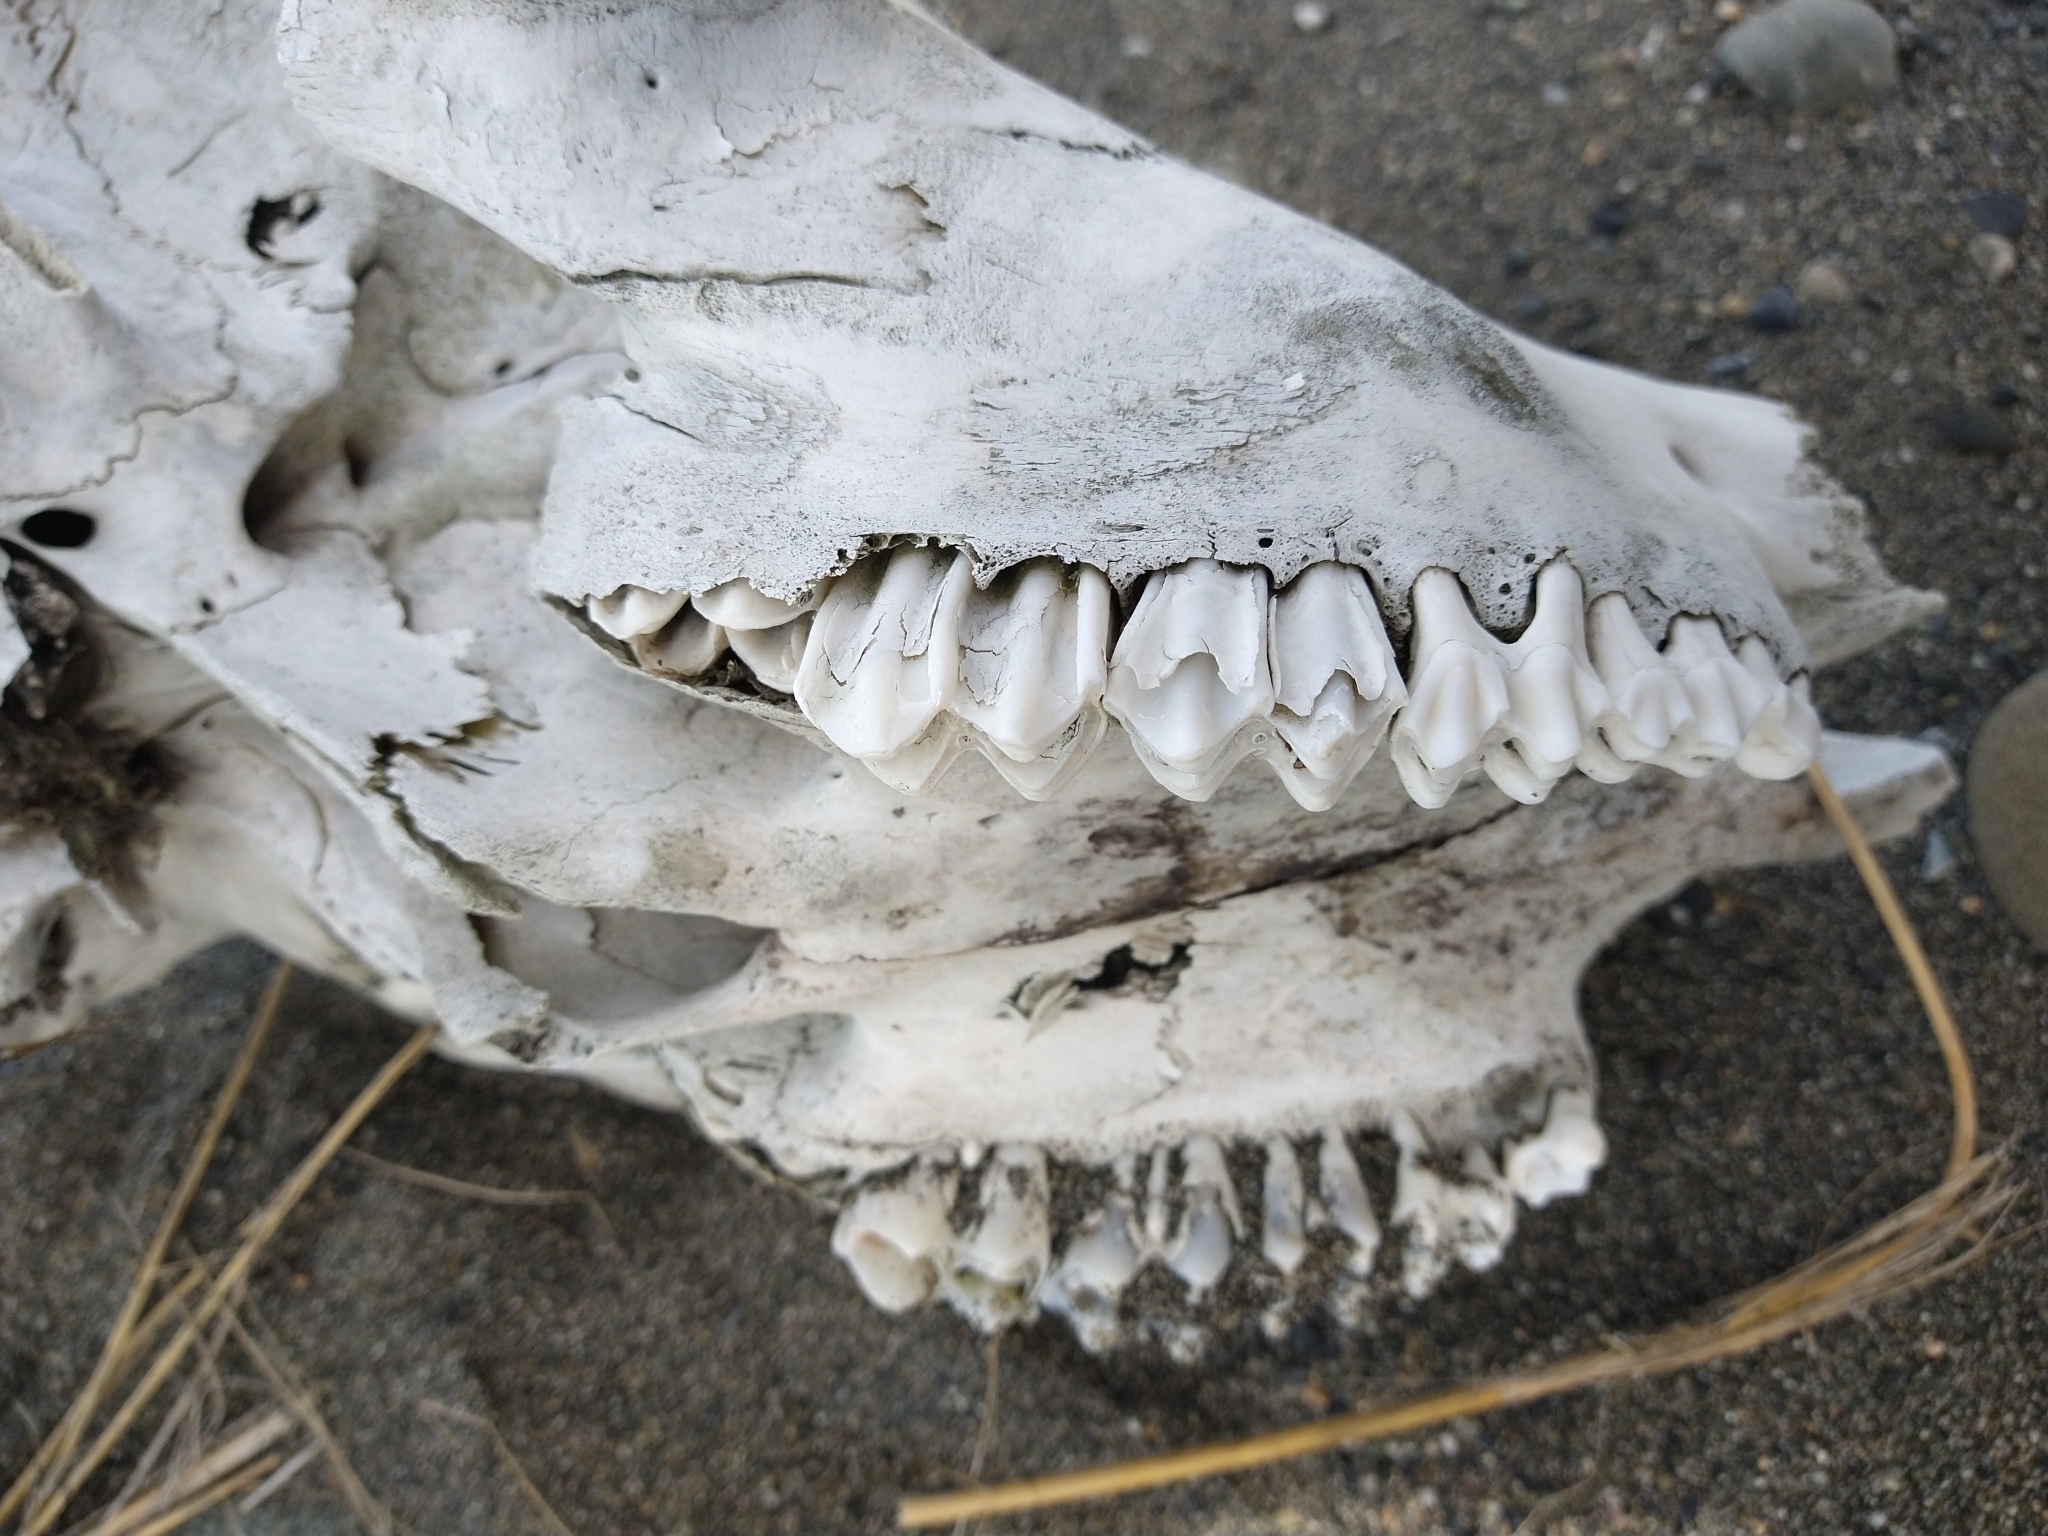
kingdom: Animalia
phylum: Chordata
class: Mammalia
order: Artiodactyla
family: Bovidae
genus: Bos
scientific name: Bos taurus
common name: Domesticated cattle
